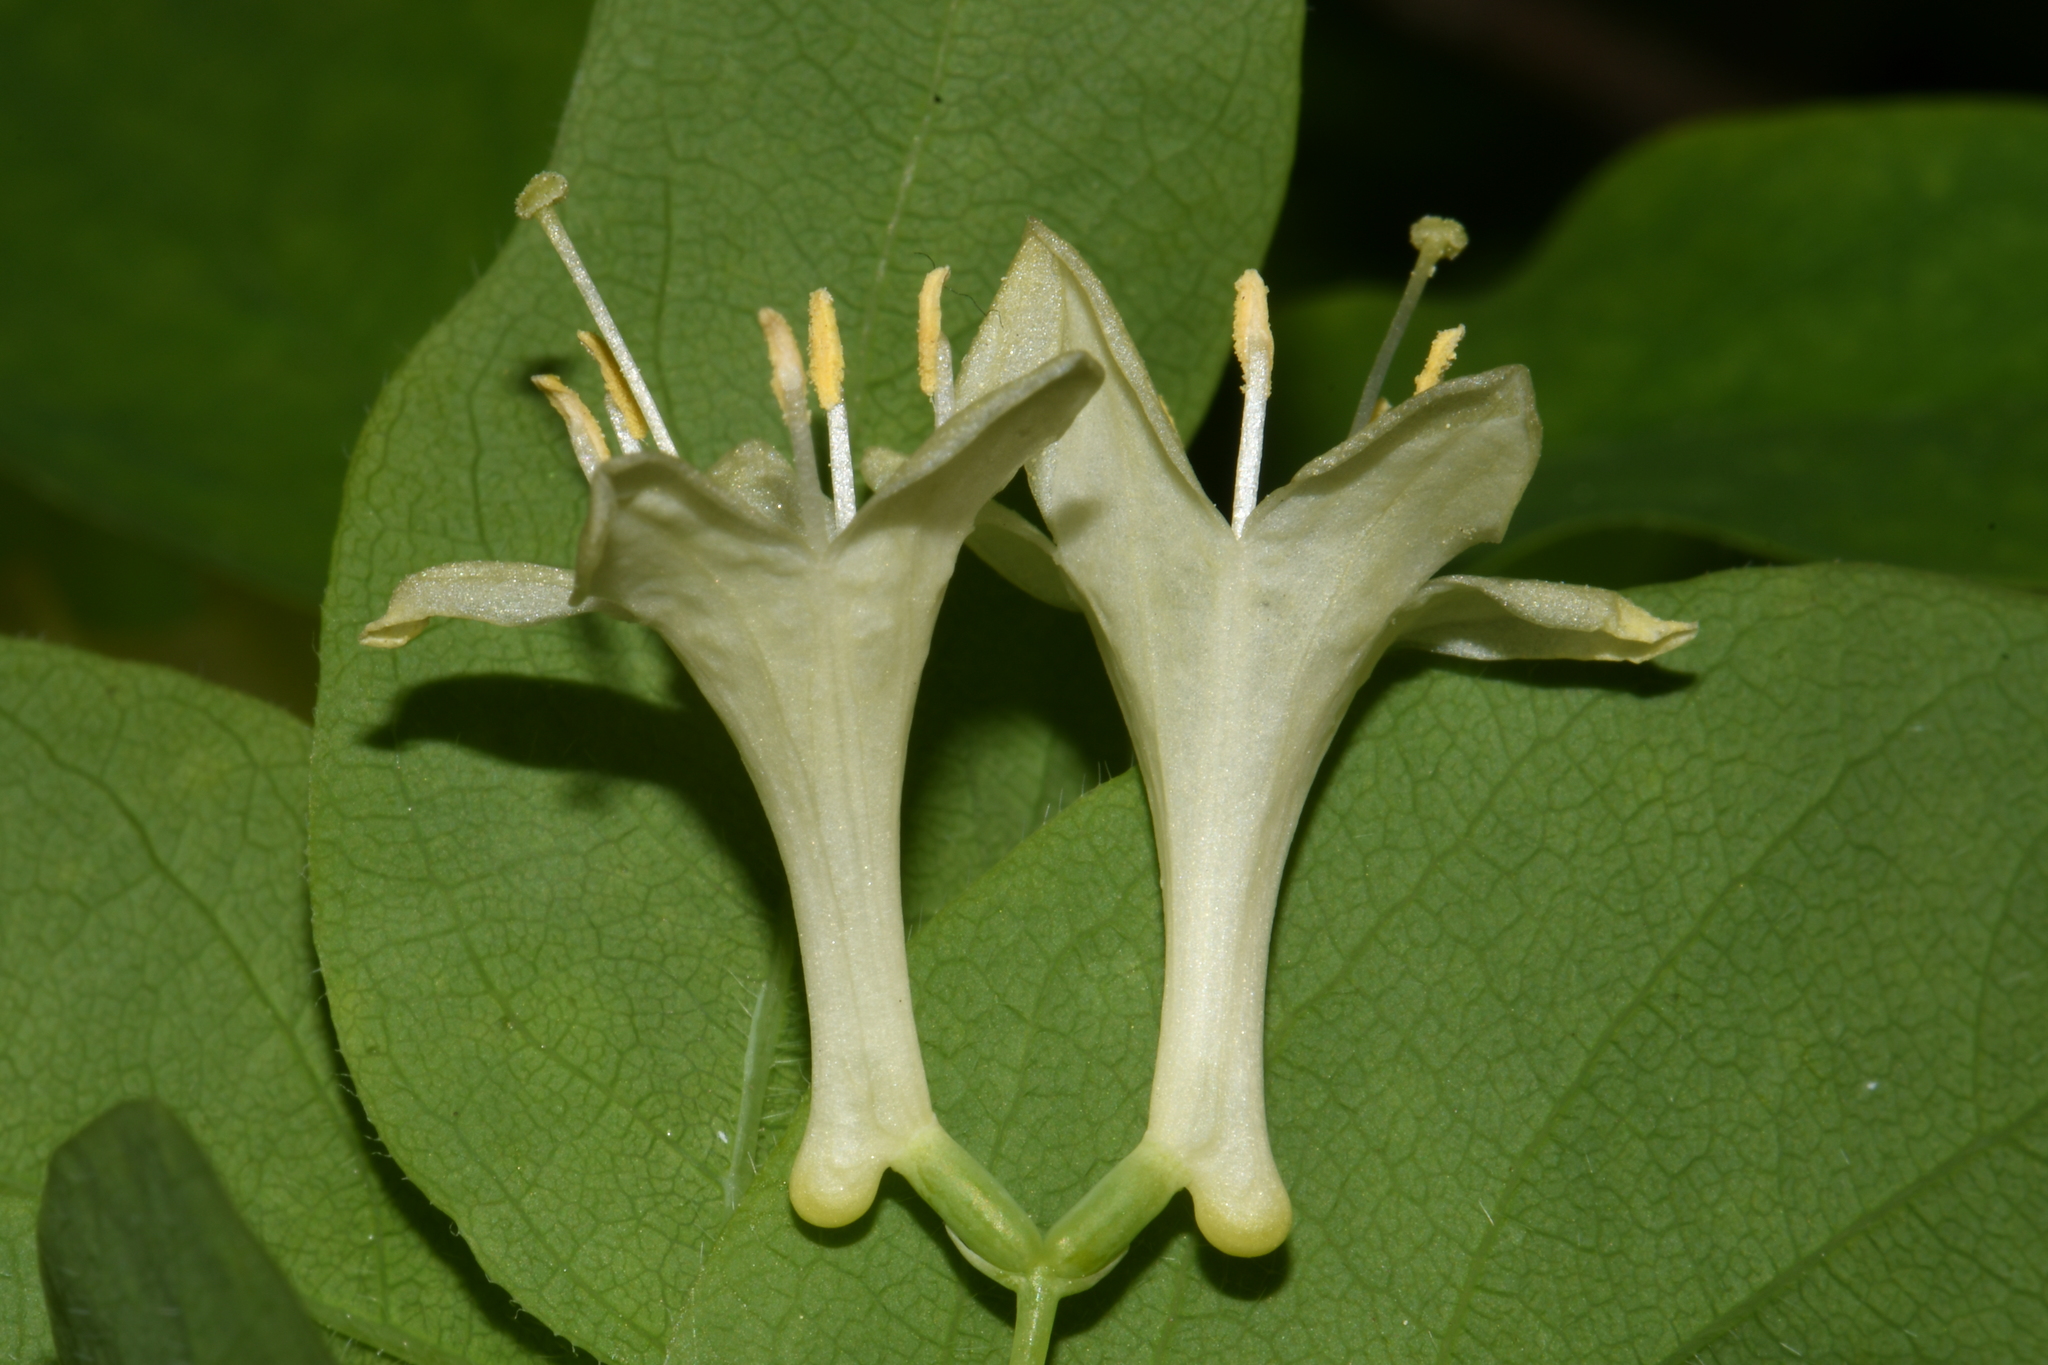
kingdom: Plantae
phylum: Tracheophyta
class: Magnoliopsida
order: Dipsacales
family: Caprifoliaceae
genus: Lonicera
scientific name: Lonicera utahensis
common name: Utah honeysuckle
